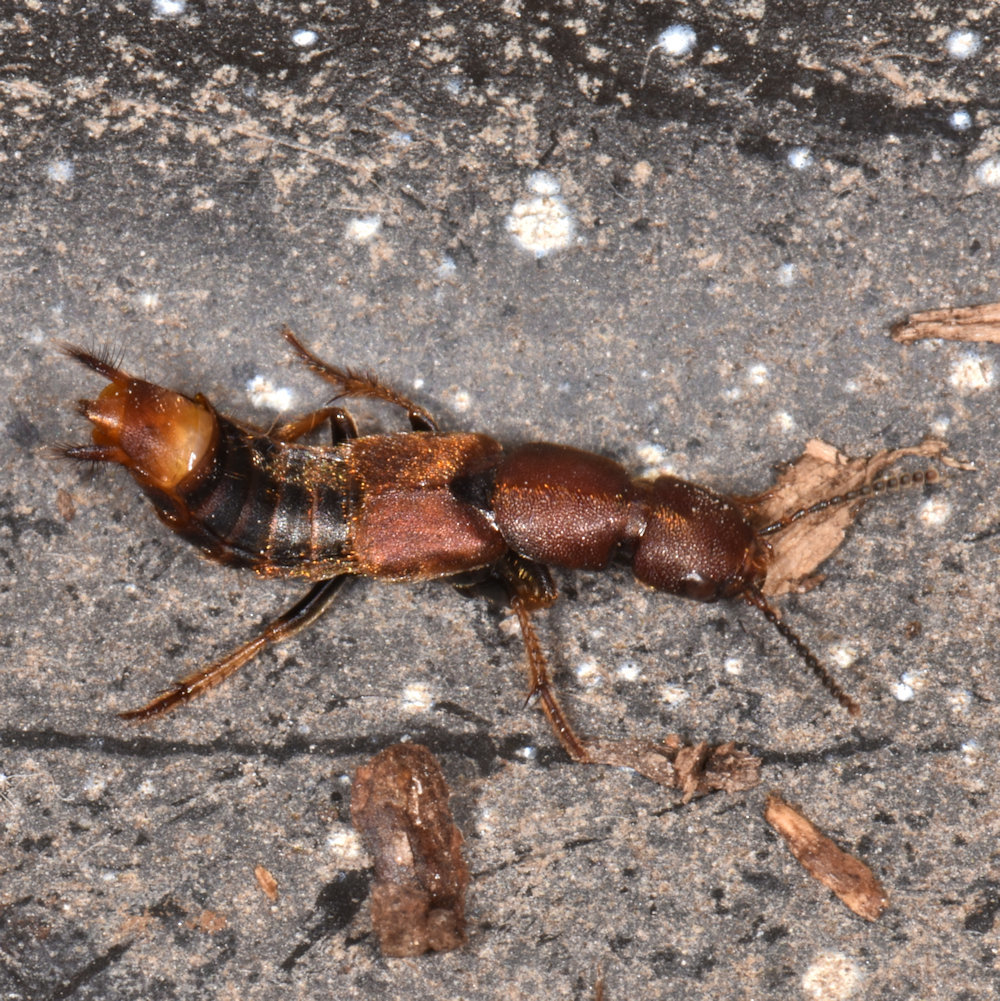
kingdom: Animalia
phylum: Arthropoda
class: Insecta
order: Coleoptera
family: Staphylinidae
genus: Platydracus
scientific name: Platydracus cinnamopterus
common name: Cinnamon rove beetle
